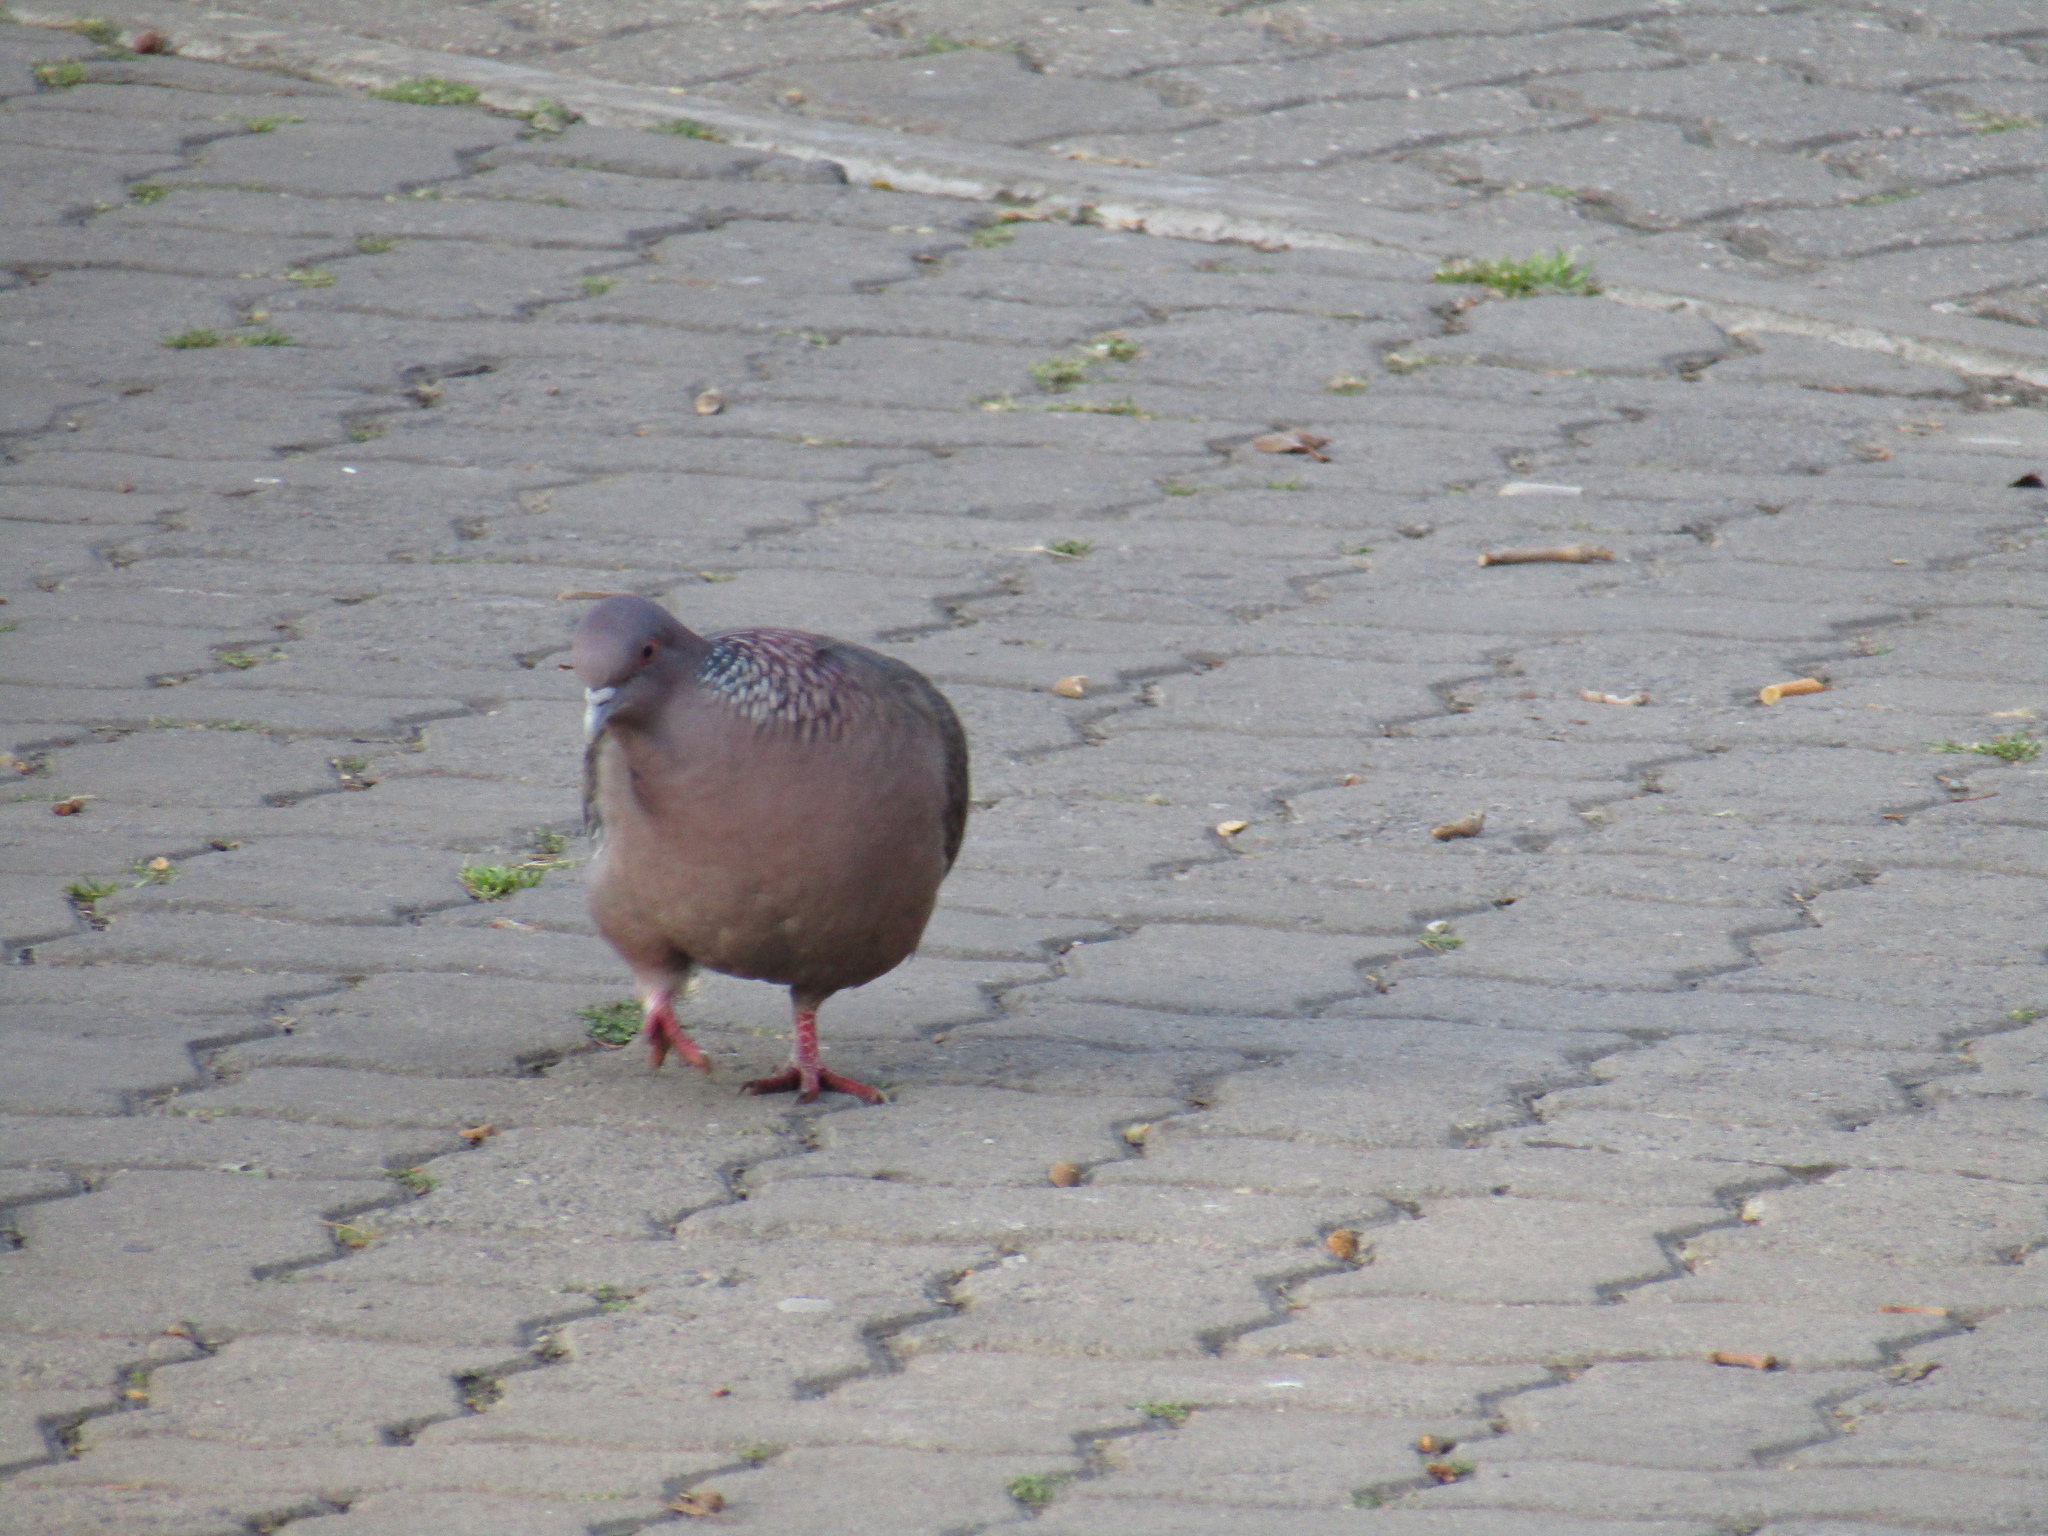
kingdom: Animalia
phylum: Chordata
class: Aves
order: Columbiformes
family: Columbidae
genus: Patagioenas
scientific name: Patagioenas picazuro
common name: Picazuro pigeon
